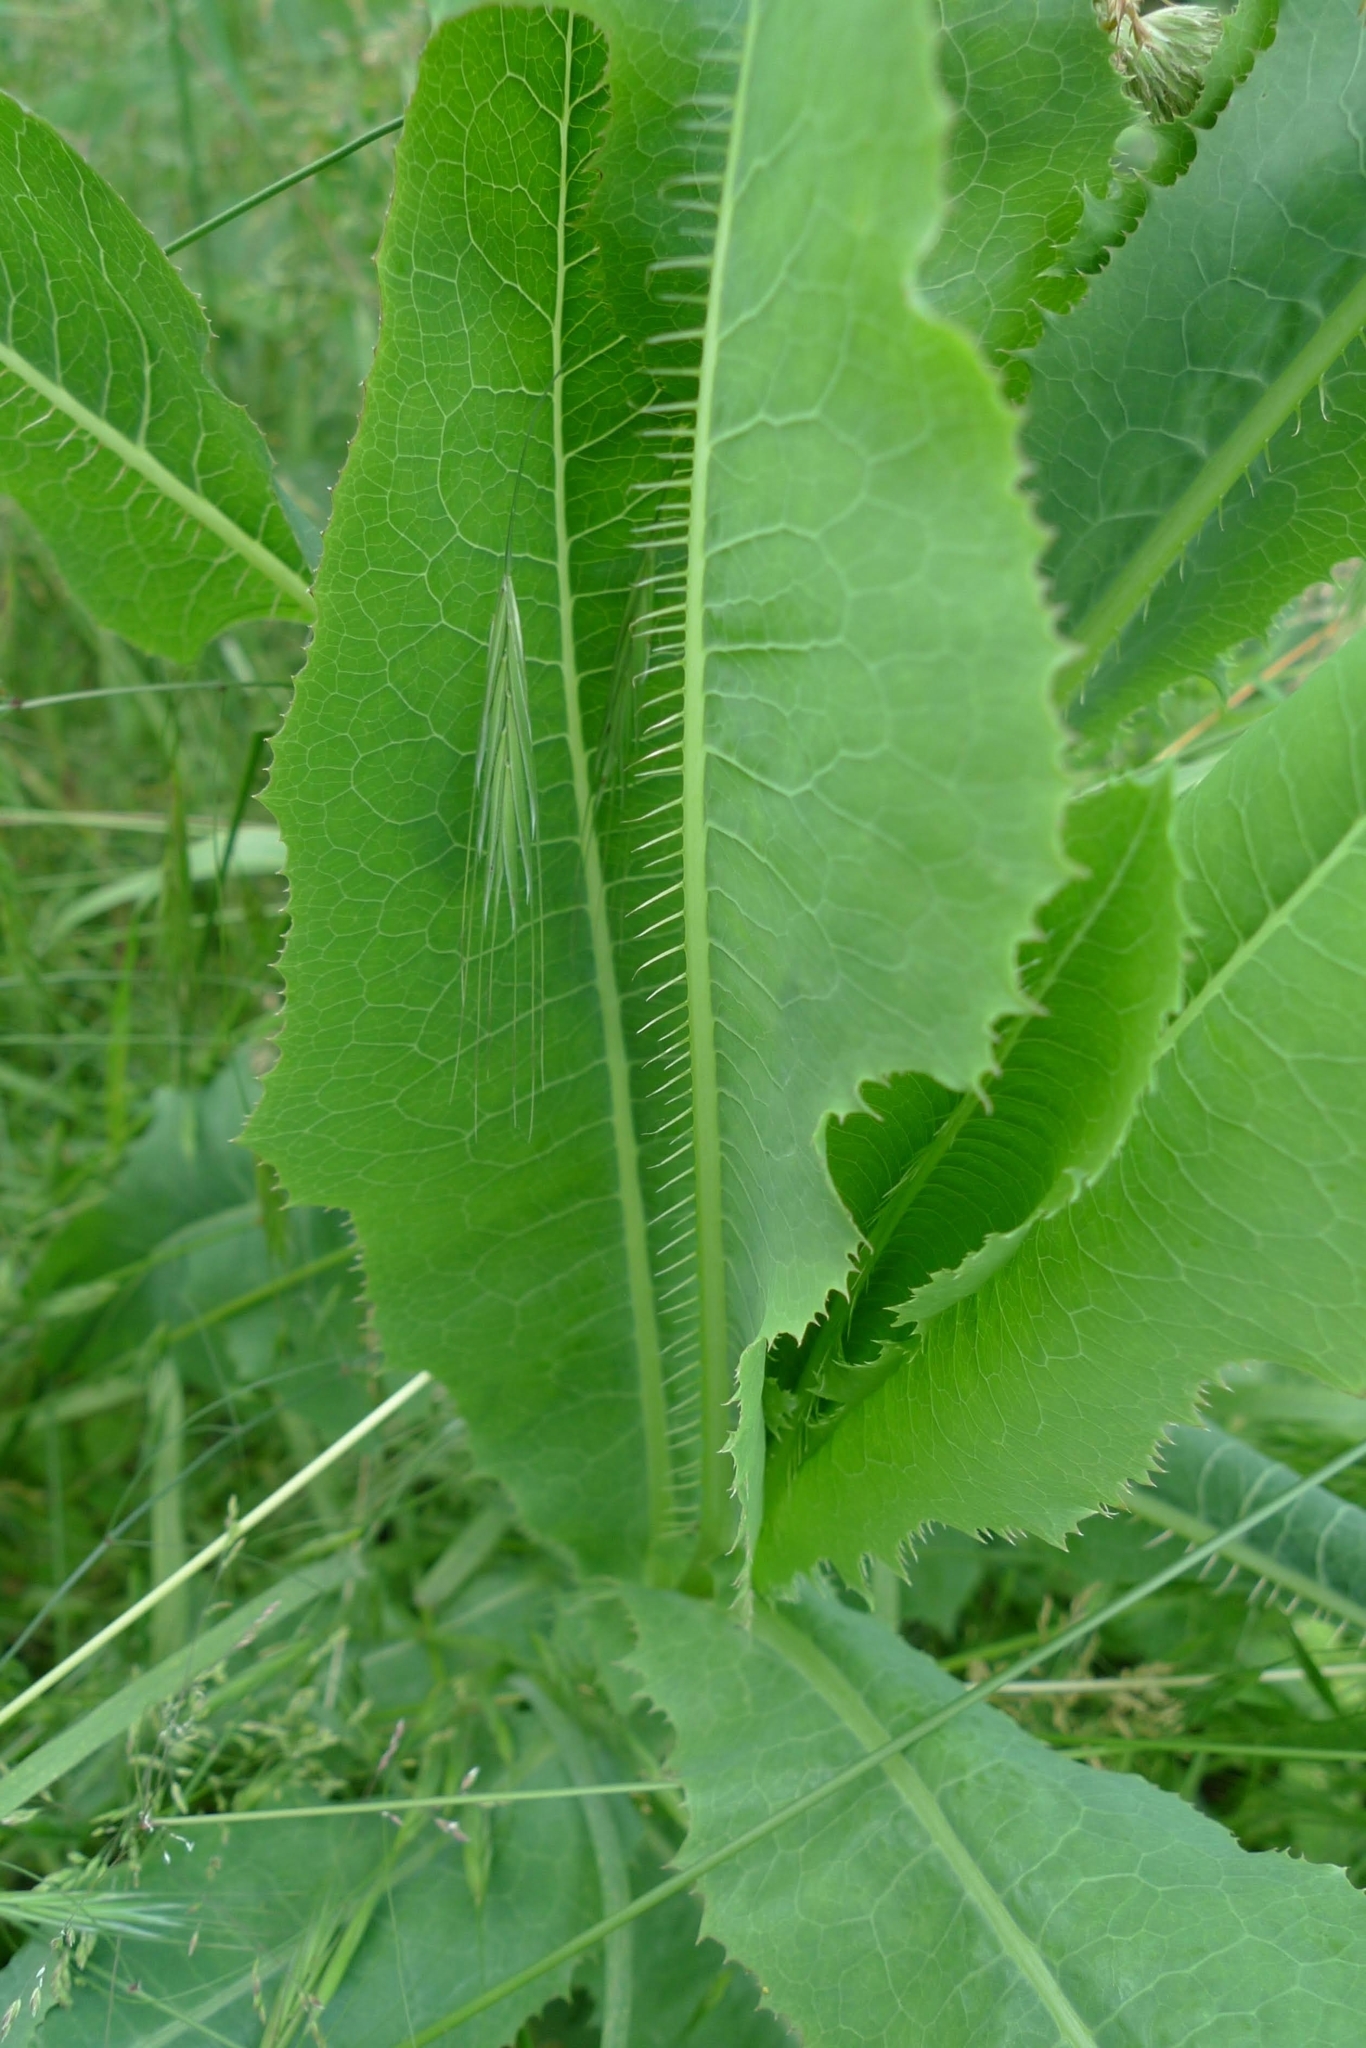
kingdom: Plantae
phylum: Tracheophyta
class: Magnoliopsida
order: Asterales
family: Asteraceae
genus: Lactuca
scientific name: Lactuca serriola
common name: Prickly lettuce
